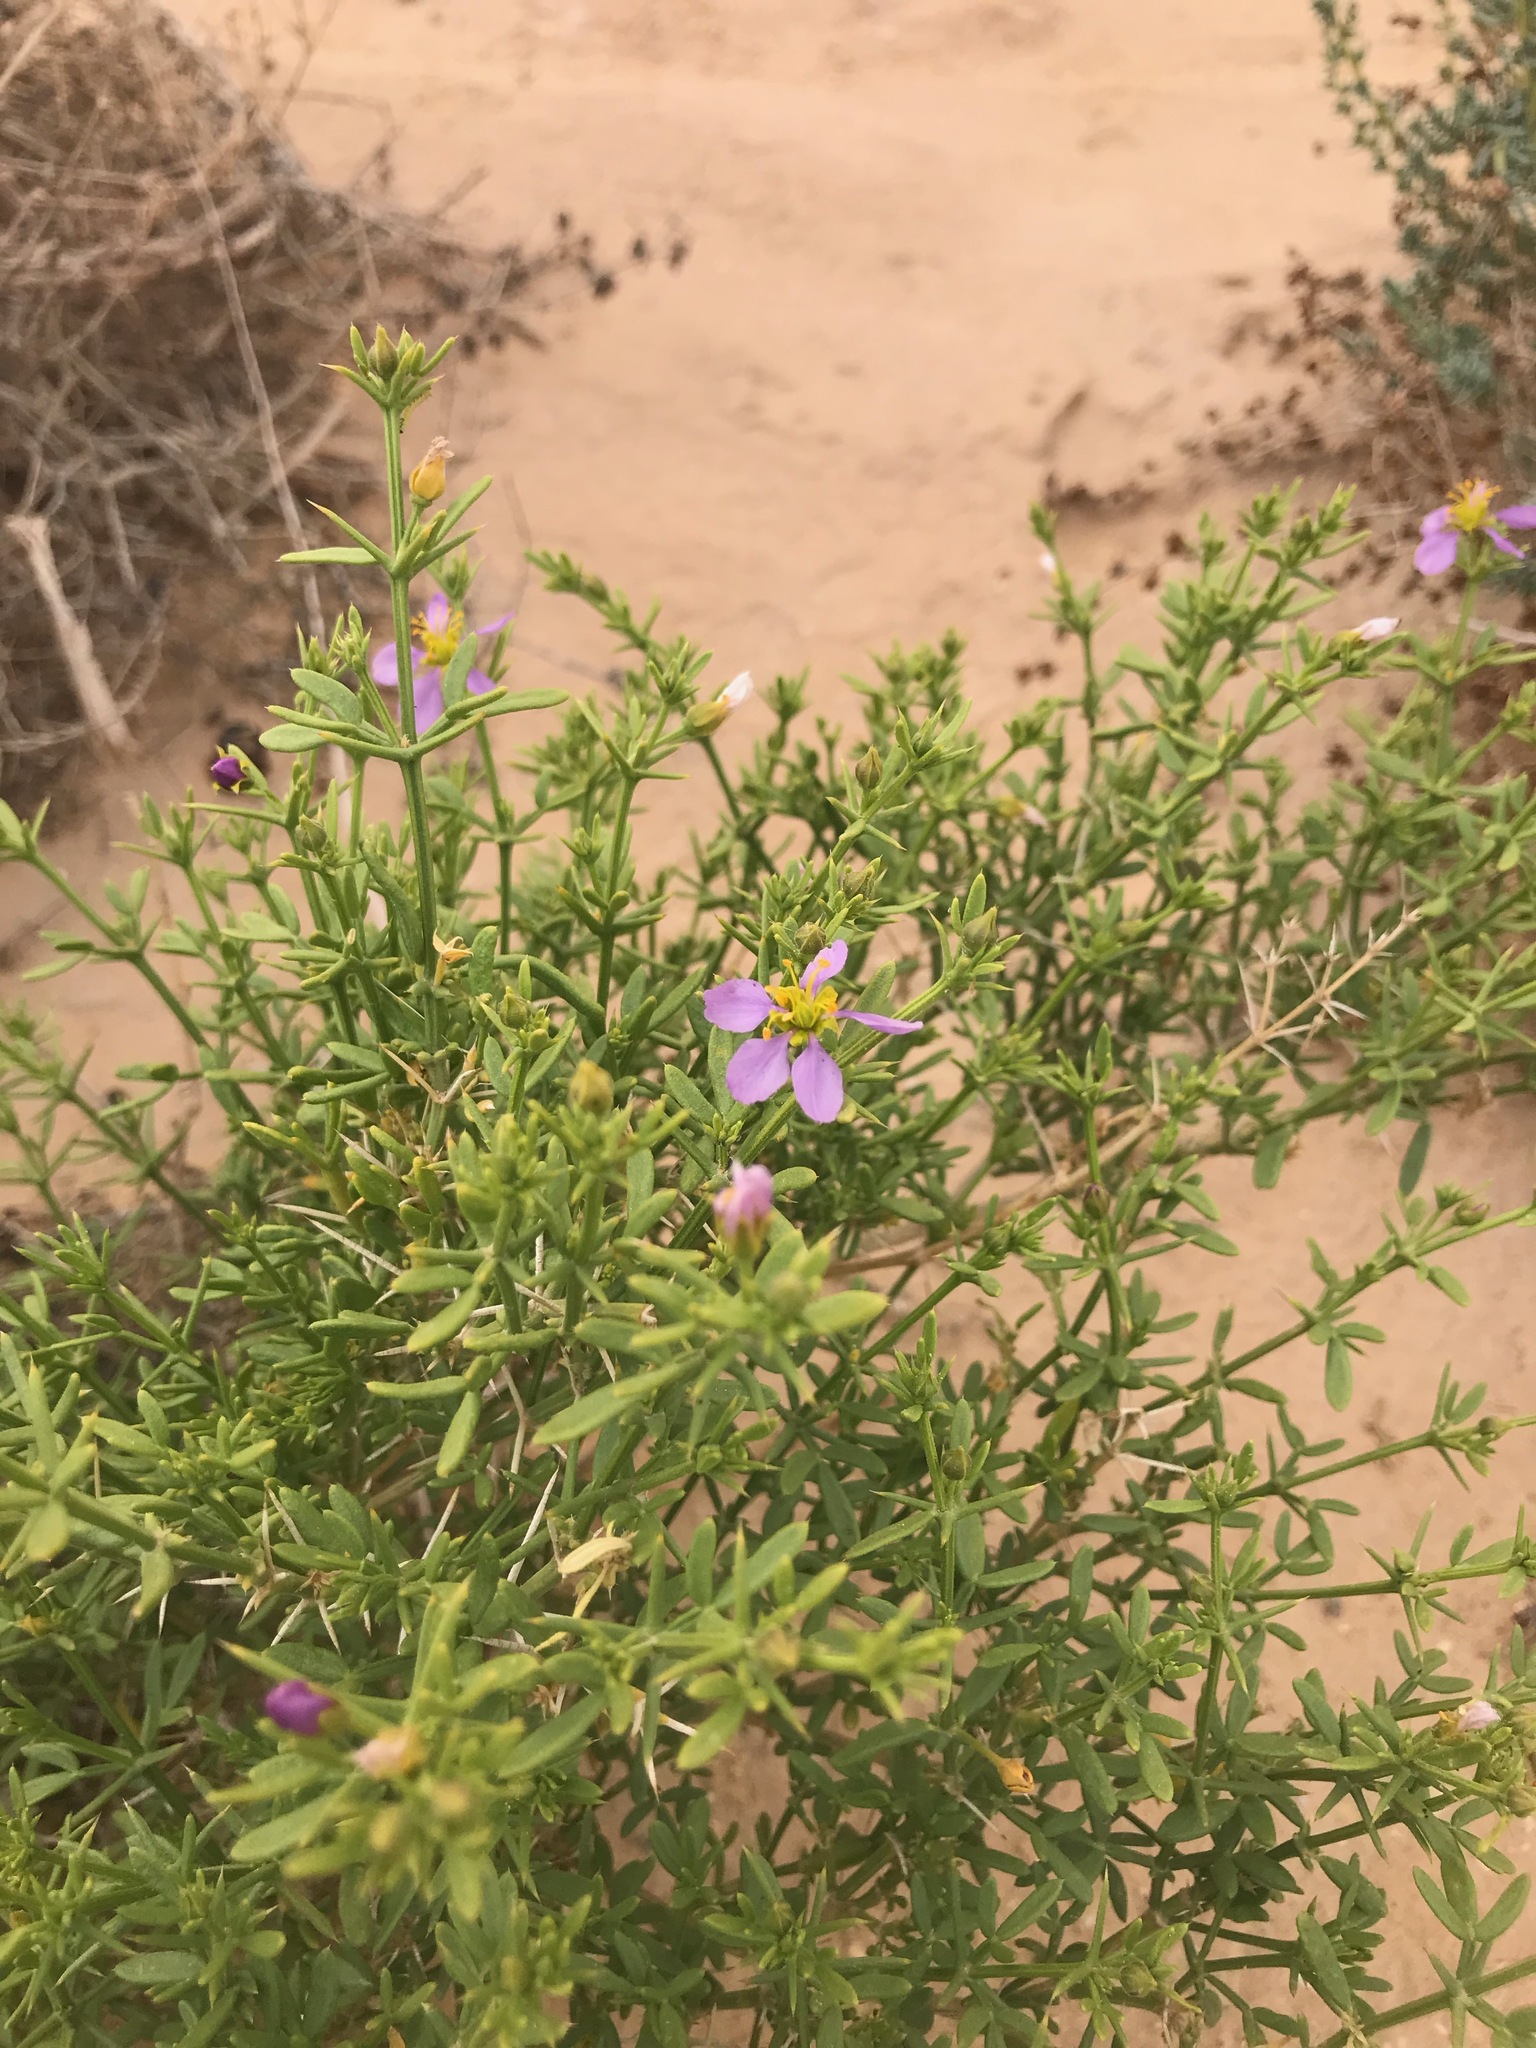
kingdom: Plantae
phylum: Tracheophyta
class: Magnoliopsida
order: Zygophyllales
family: Zygophyllaceae
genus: Fagonia
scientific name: Fagonia mollis
